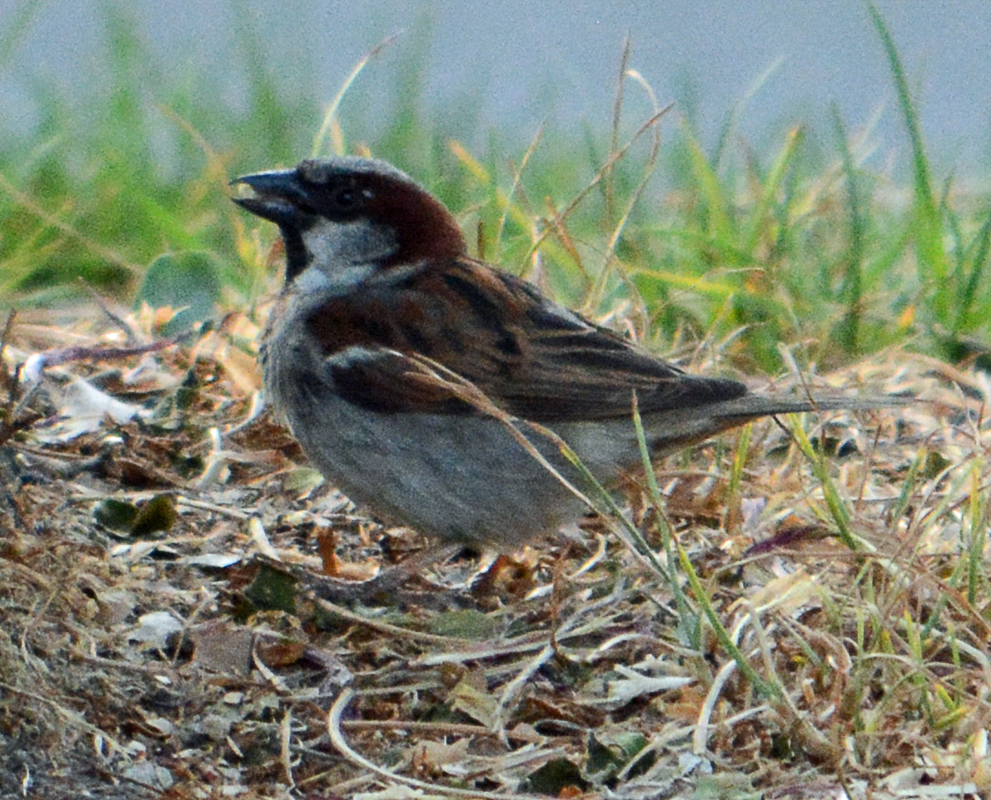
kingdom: Animalia
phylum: Chordata
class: Aves
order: Passeriformes
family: Passeridae
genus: Passer
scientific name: Passer domesticus
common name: House sparrow
